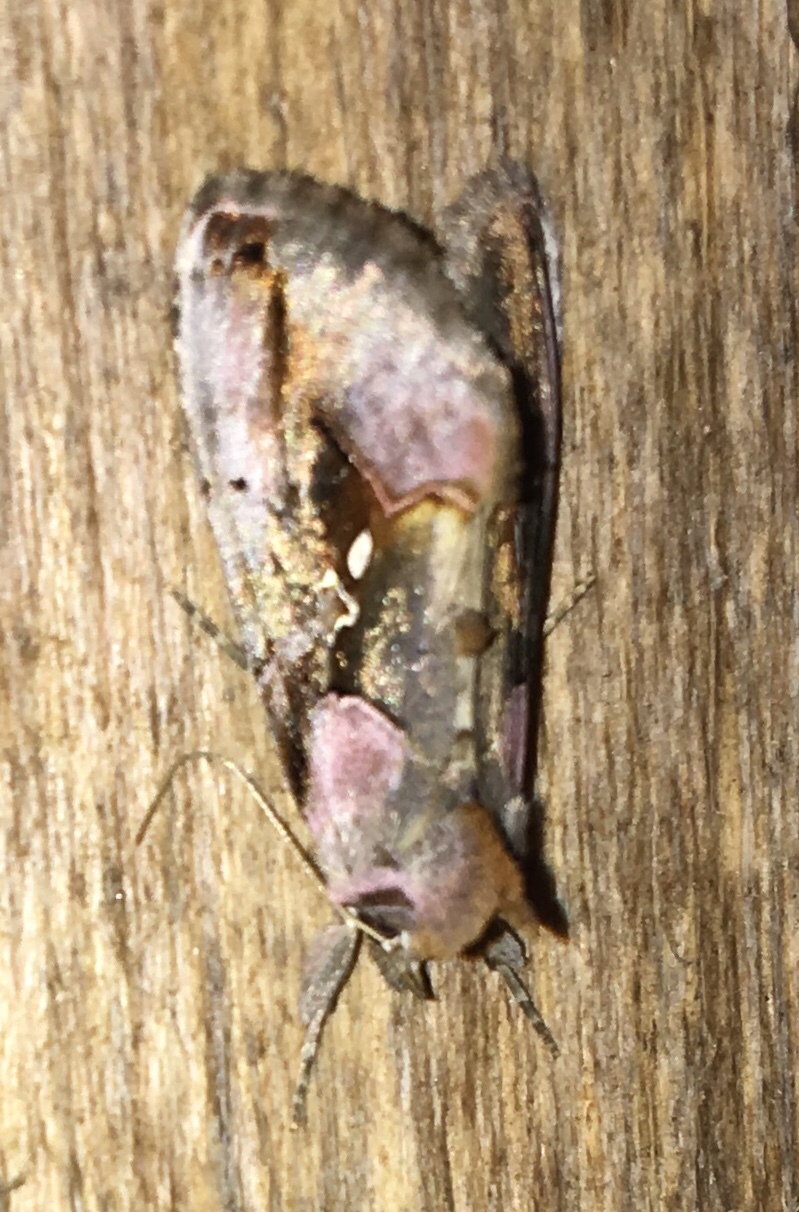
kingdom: Animalia
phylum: Arthropoda
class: Insecta
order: Lepidoptera
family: Noctuidae
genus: Enigmogramma
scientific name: Enigmogramma basigera
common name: Pink-washed looper moth
